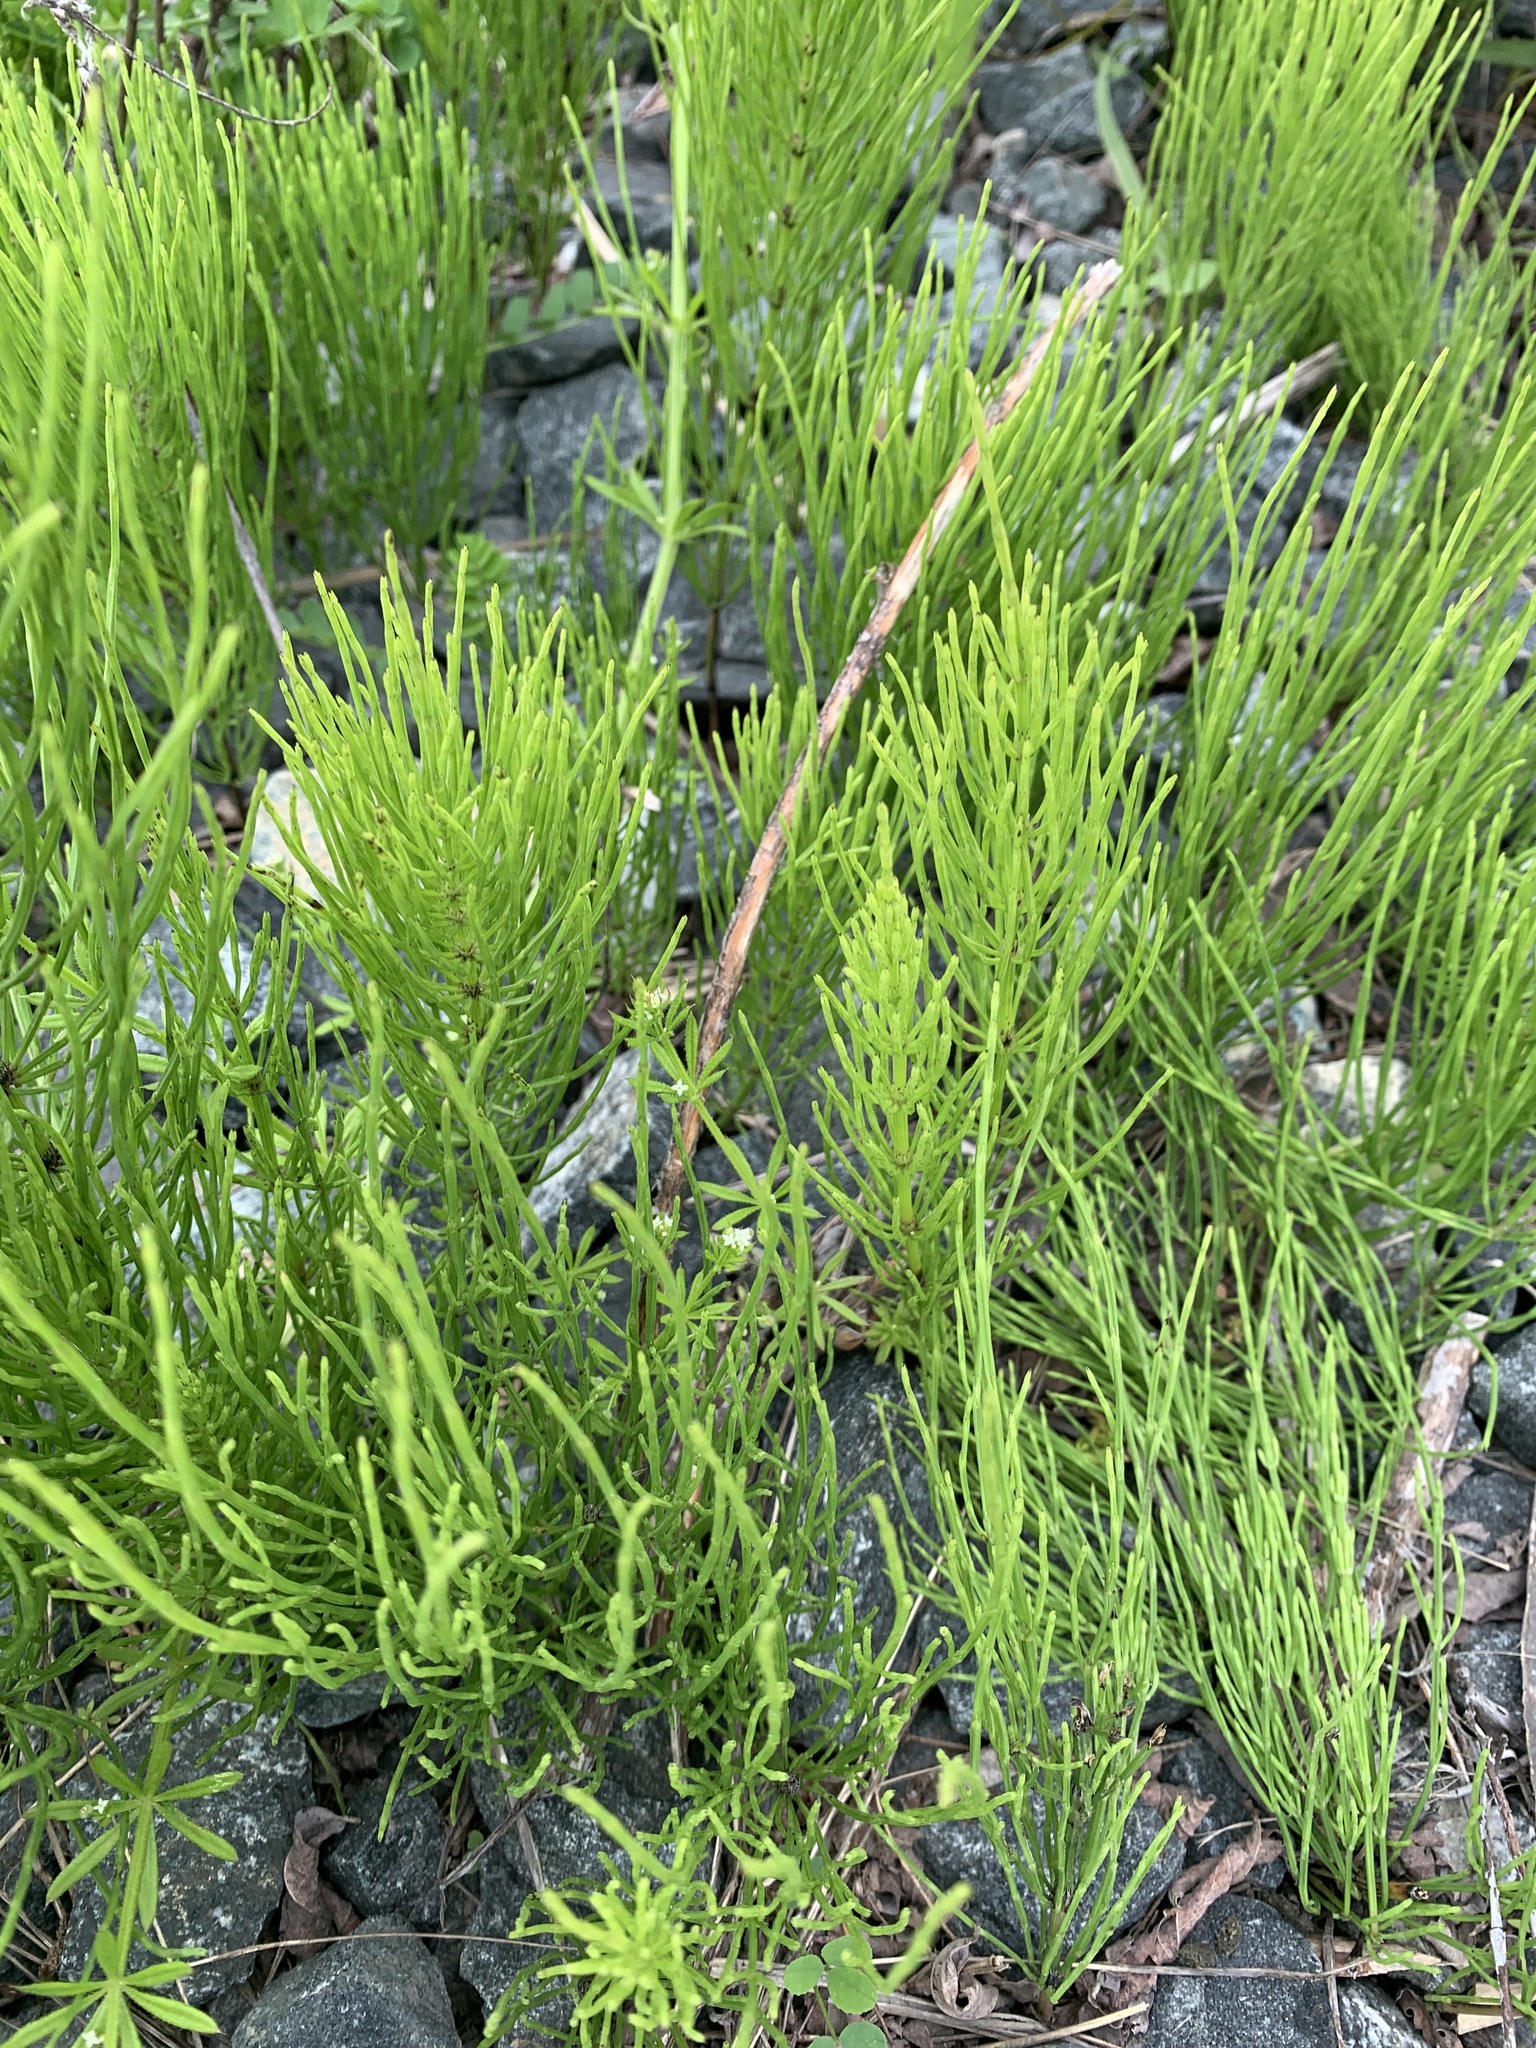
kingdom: Plantae
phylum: Tracheophyta
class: Polypodiopsida
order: Equisetales
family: Equisetaceae
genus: Equisetum
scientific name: Equisetum arvense
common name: Field horsetail
